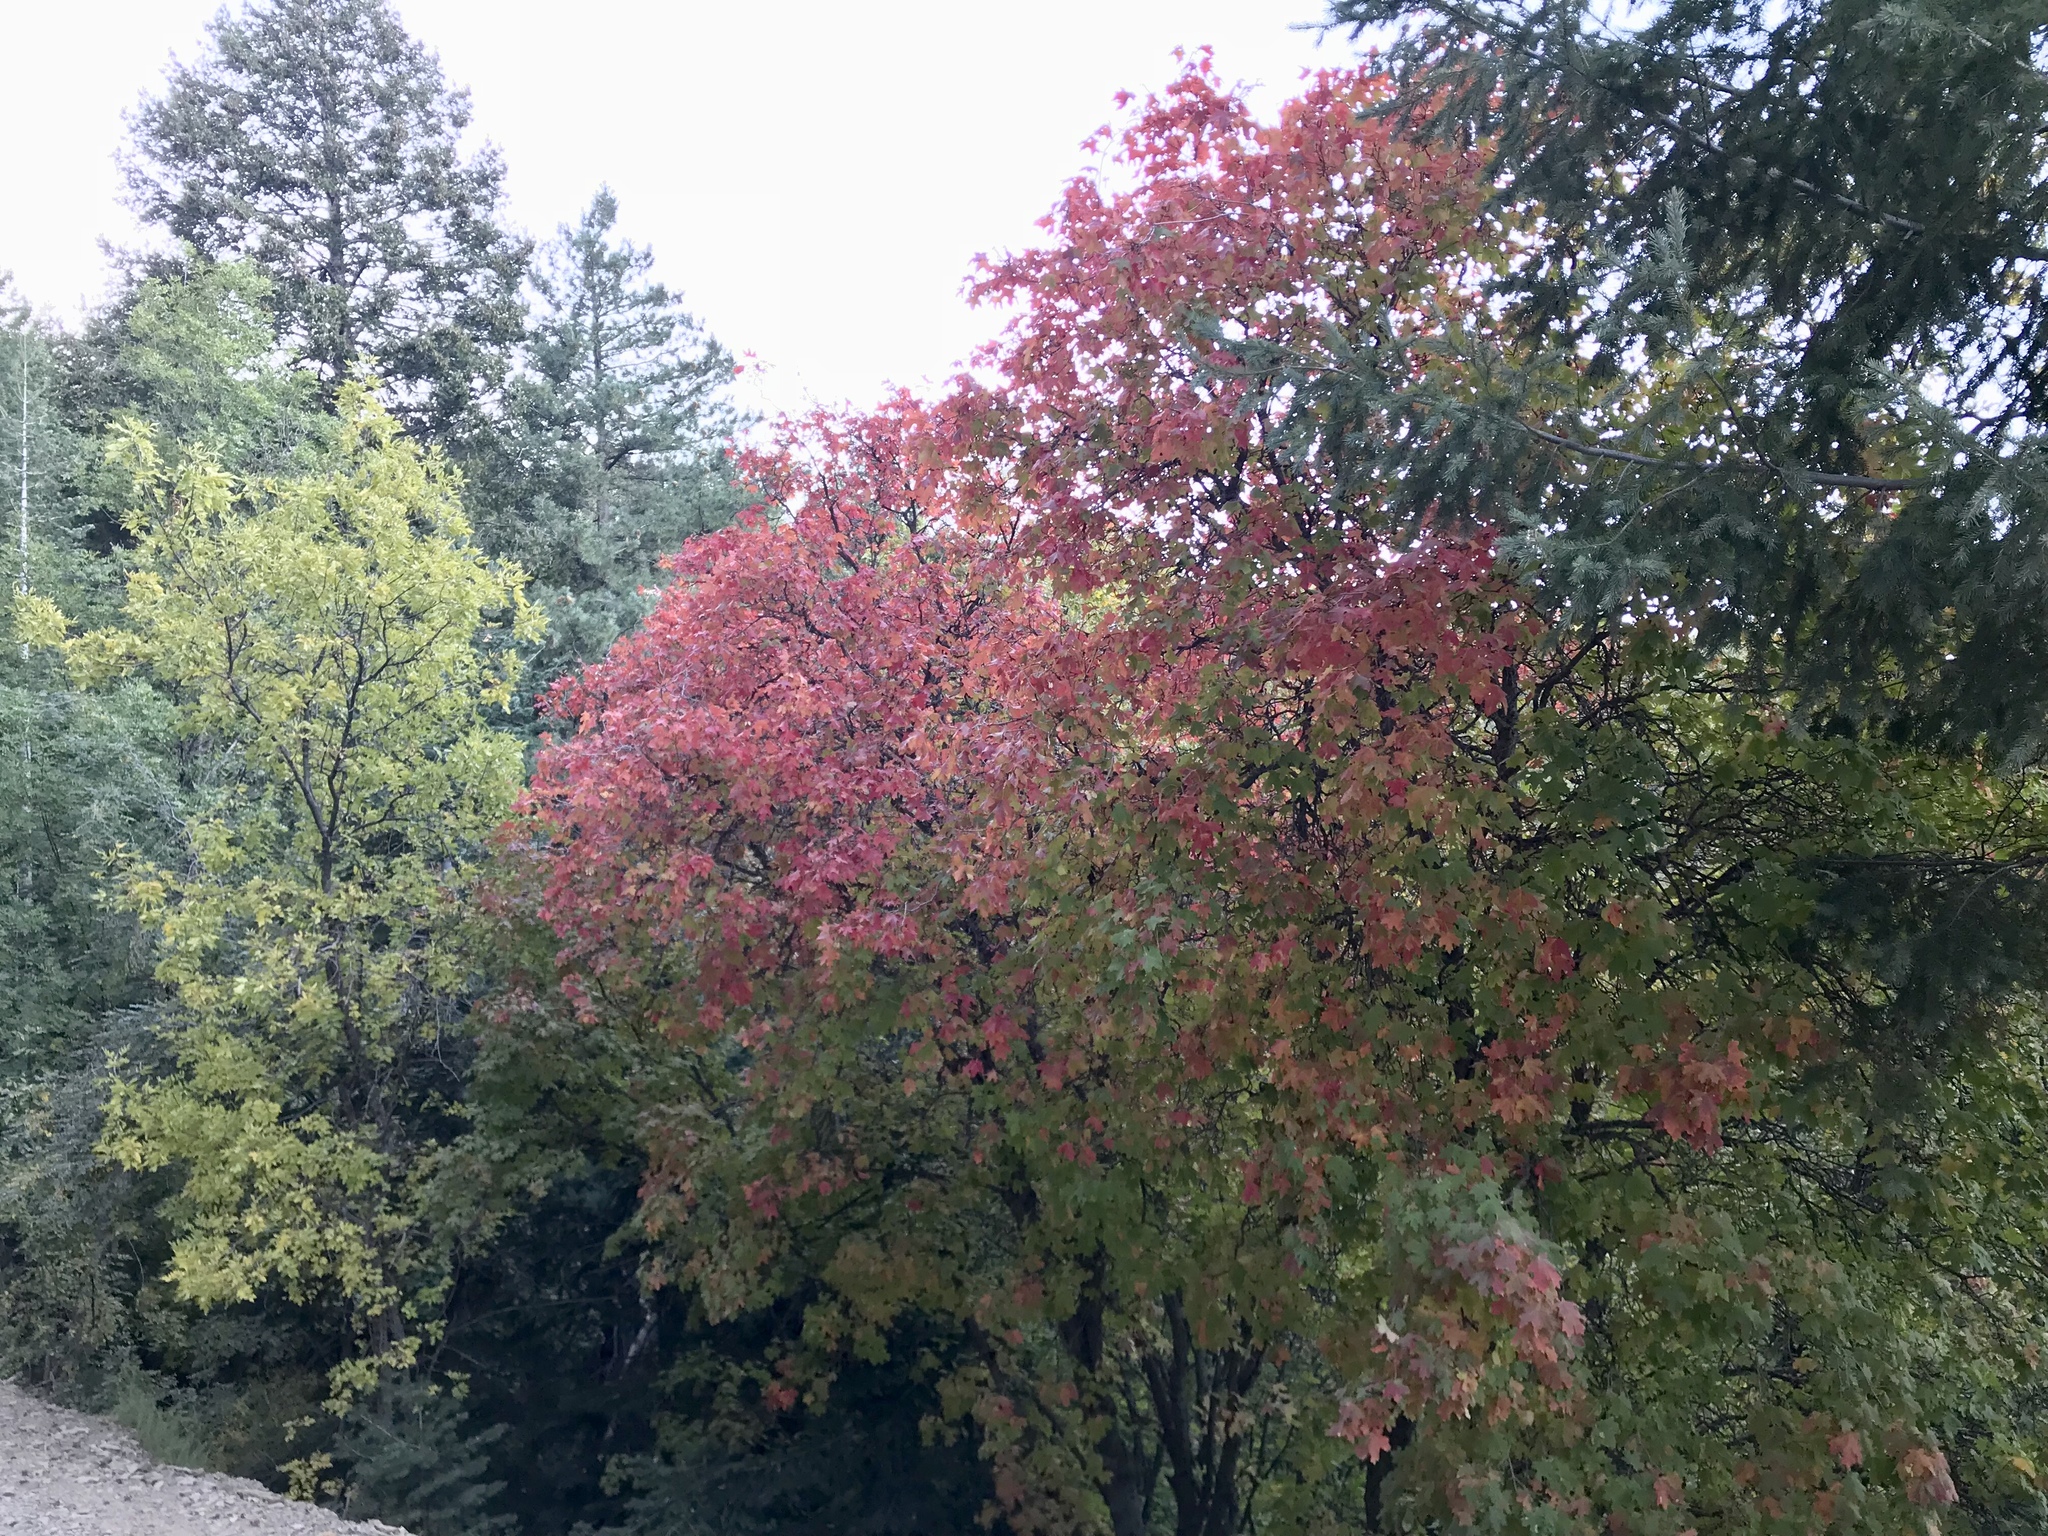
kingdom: Plantae
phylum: Tracheophyta
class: Magnoliopsida
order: Sapindales
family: Sapindaceae
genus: Acer
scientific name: Acer grandidentatum
